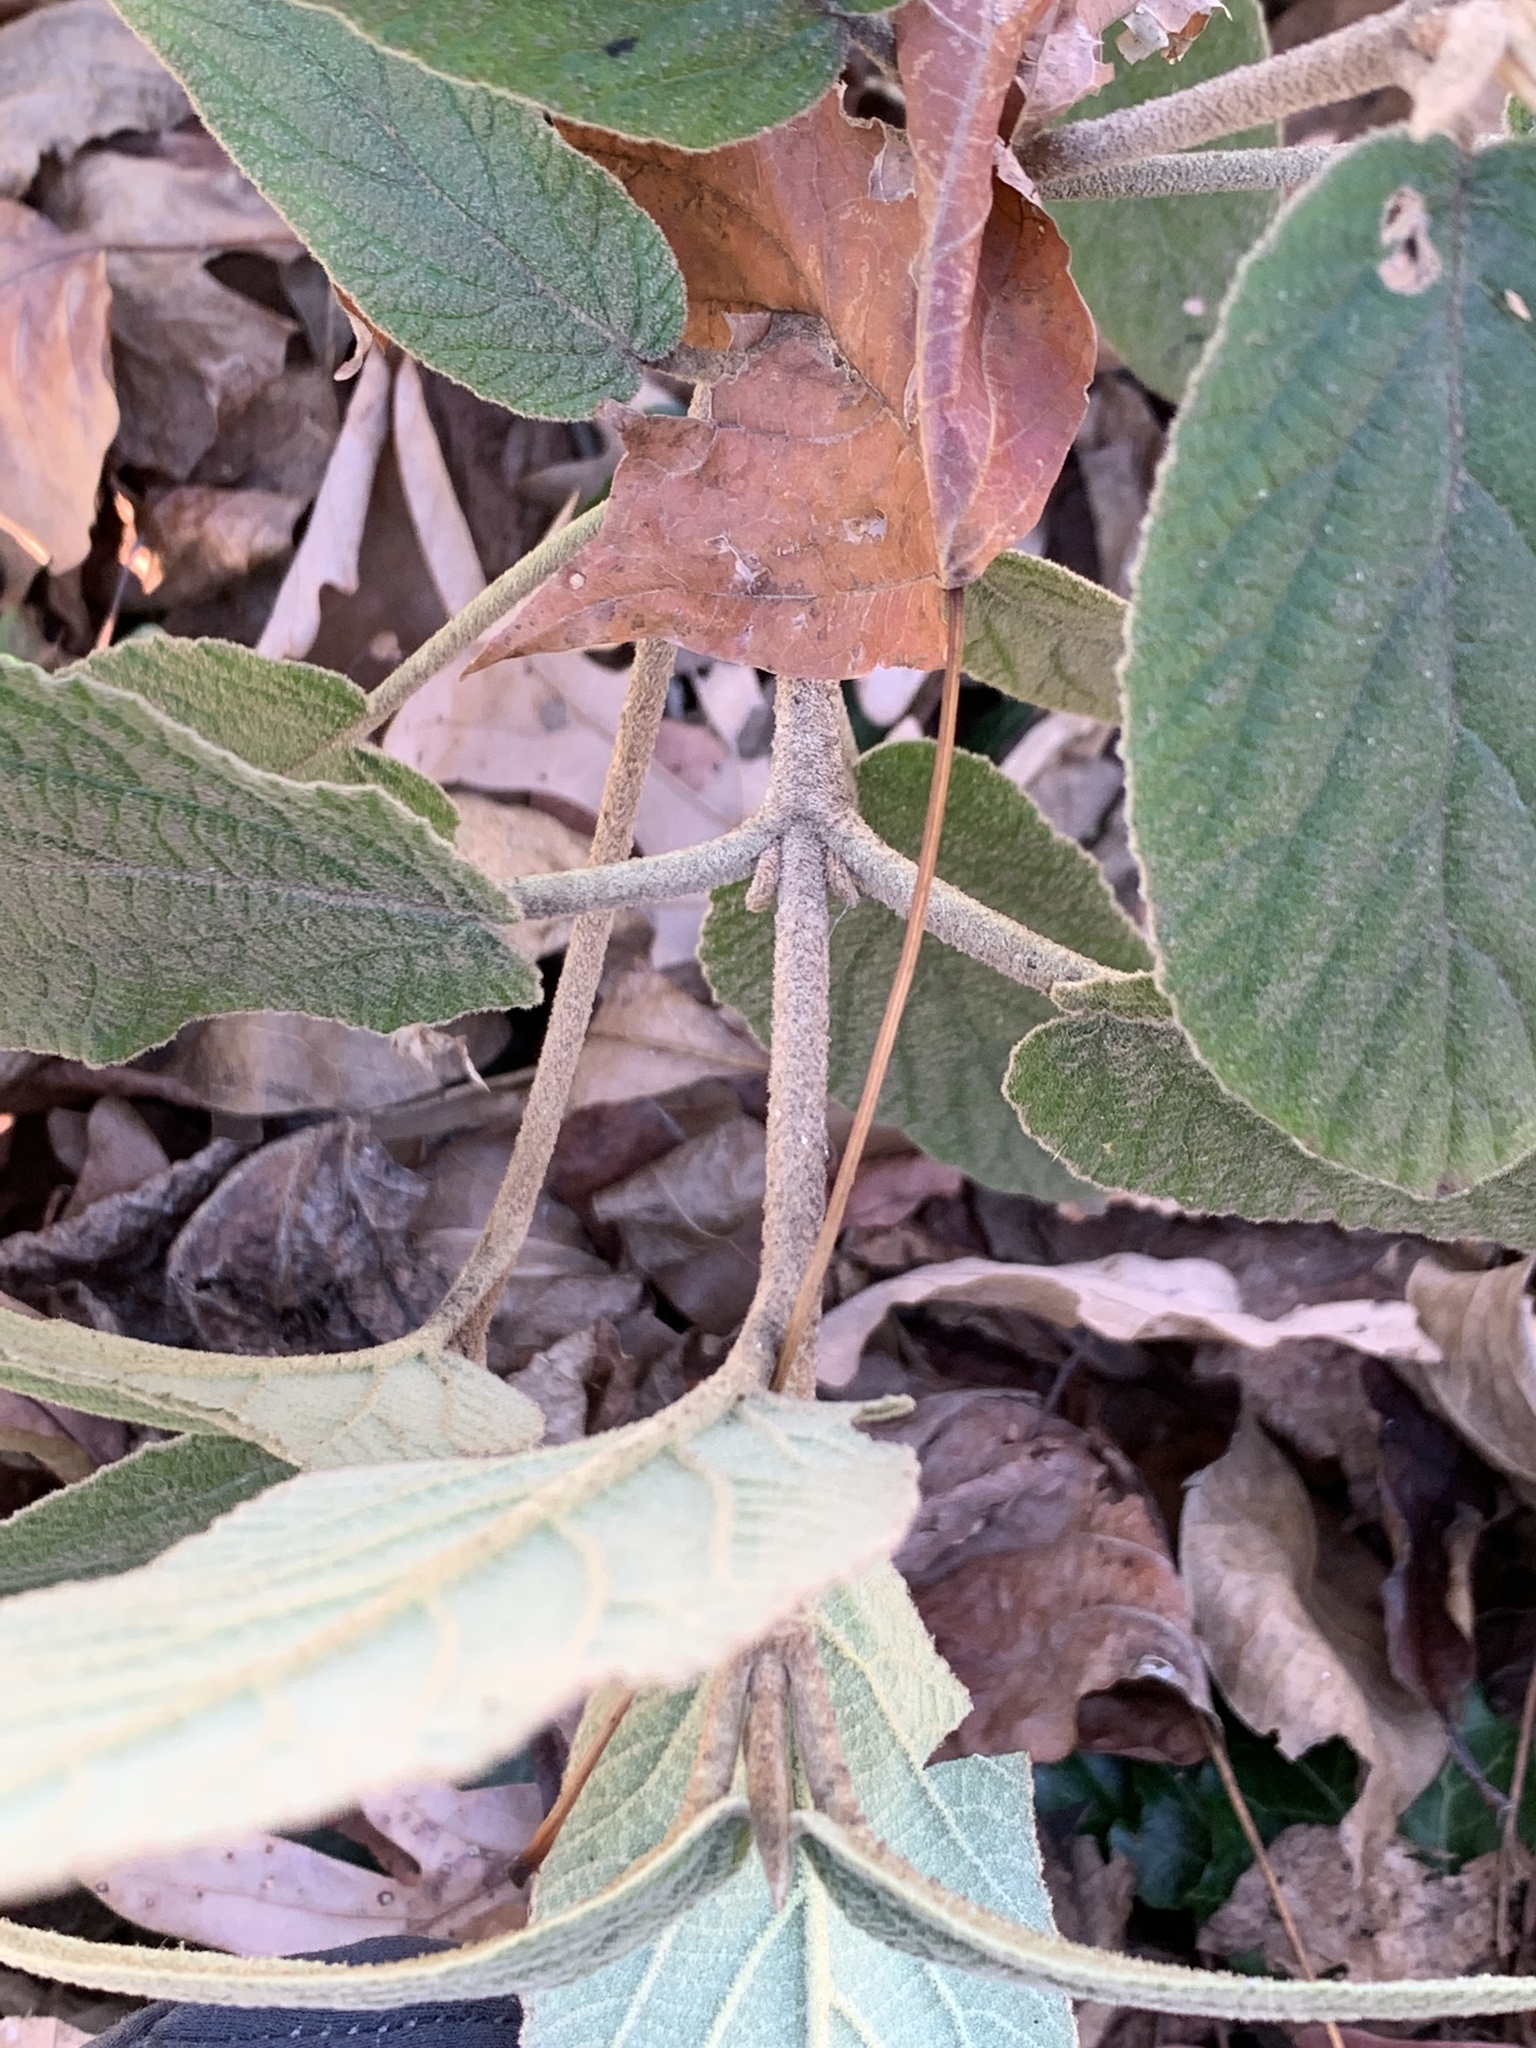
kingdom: Plantae
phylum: Tracheophyta
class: Magnoliopsida
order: Dipsacales
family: Viburnaceae
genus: Viburnum
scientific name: Viburnum rhytidophyllum
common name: Wrinkled viburnum
